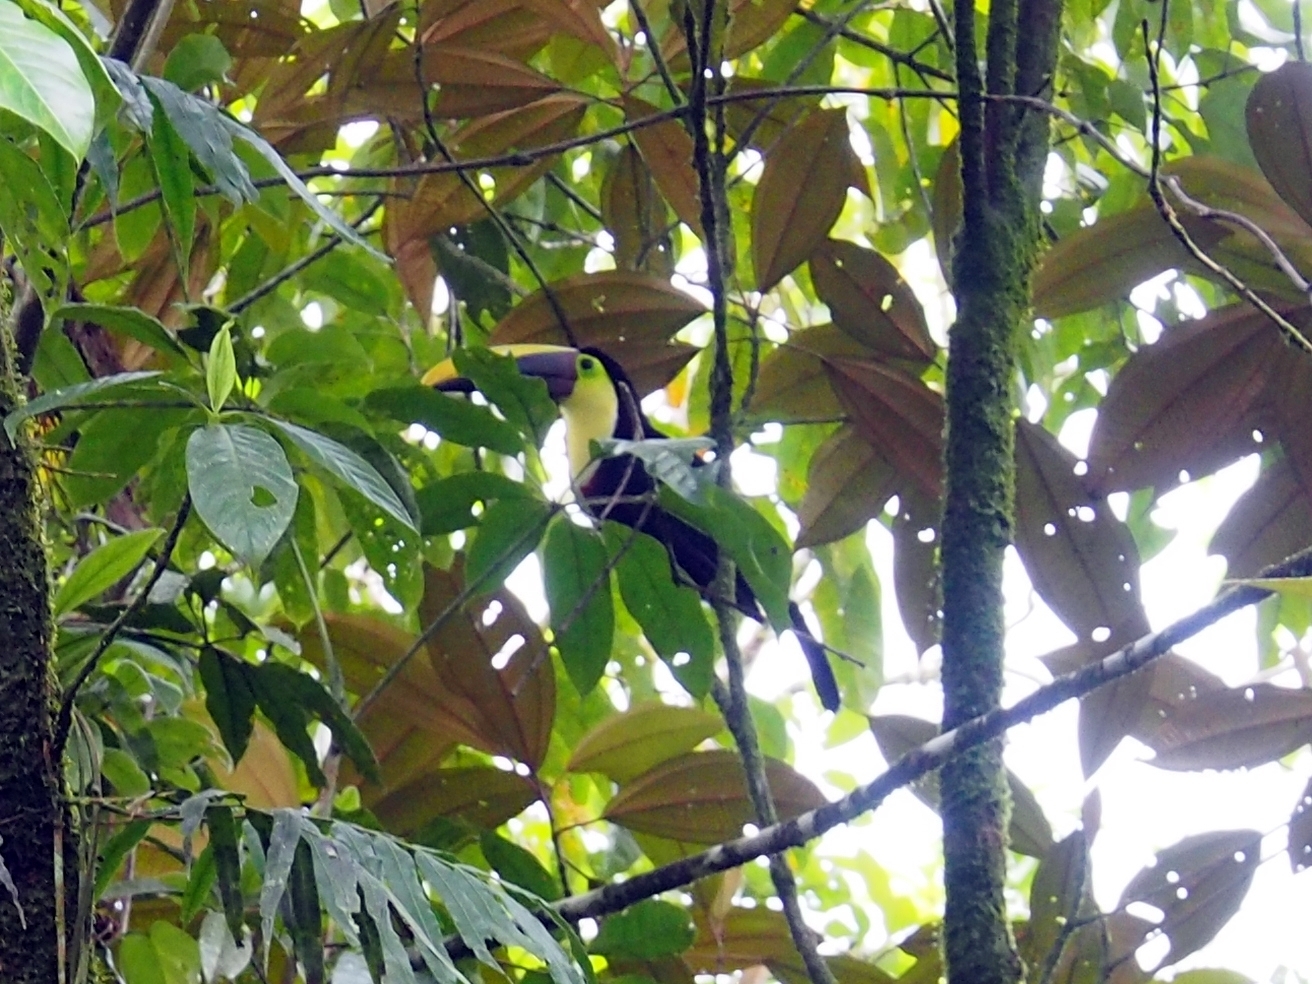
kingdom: Animalia
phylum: Chordata
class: Aves
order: Piciformes
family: Ramphastidae
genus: Ramphastos
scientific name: Ramphastos ambiguus
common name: Yellow-throated toucan
